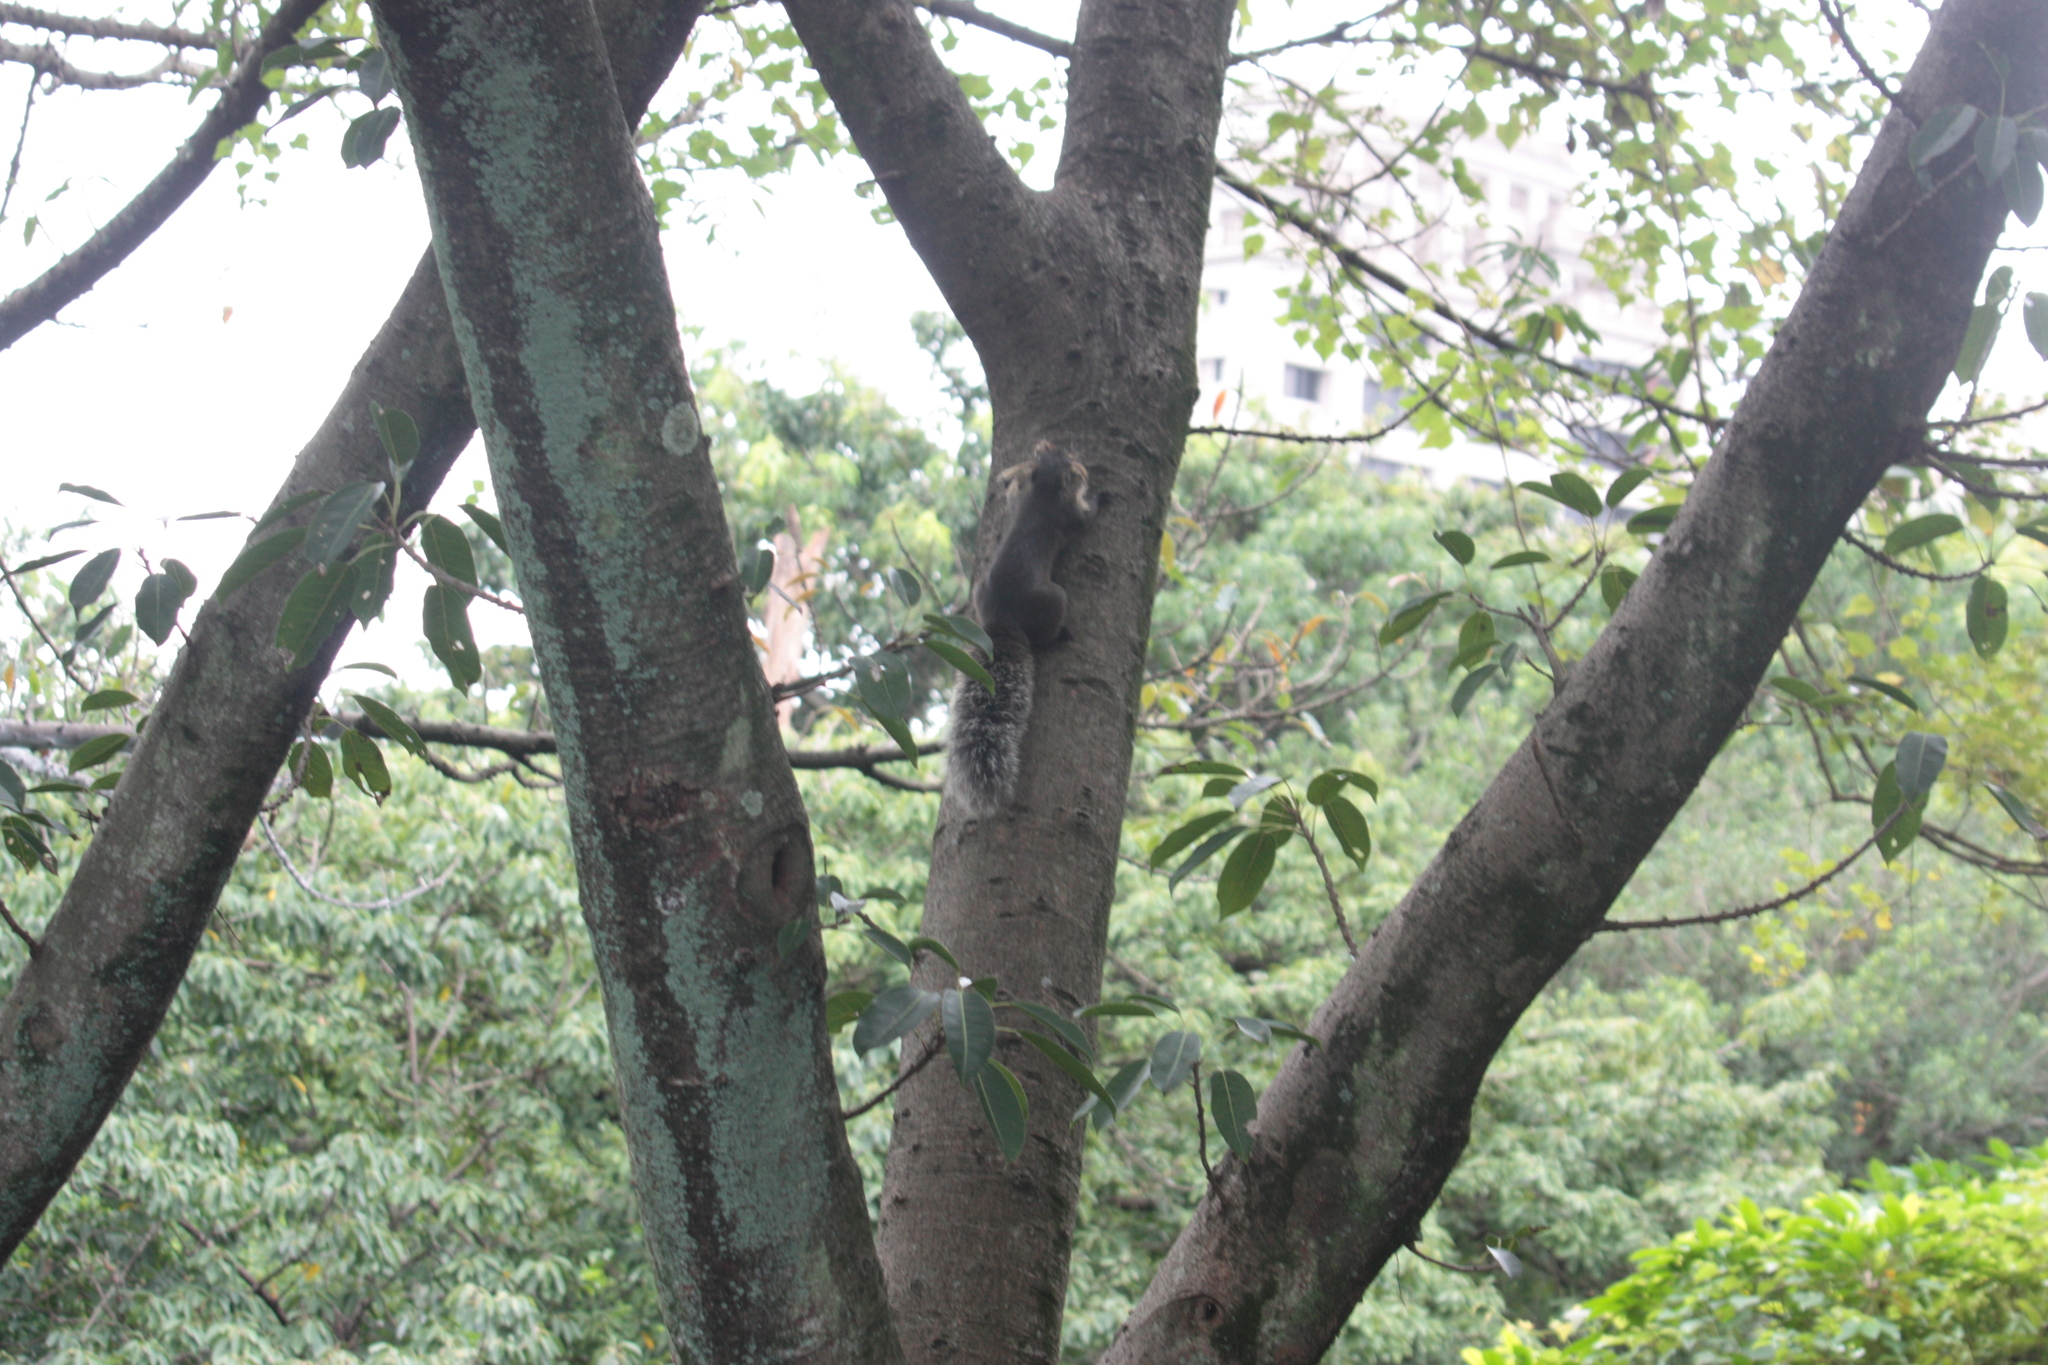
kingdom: Animalia
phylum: Chordata
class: Mammalia
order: Rodentia
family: Sciuridae
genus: Callosciurus
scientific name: Callosciurus erythraeus
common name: Pallas's squirrel
